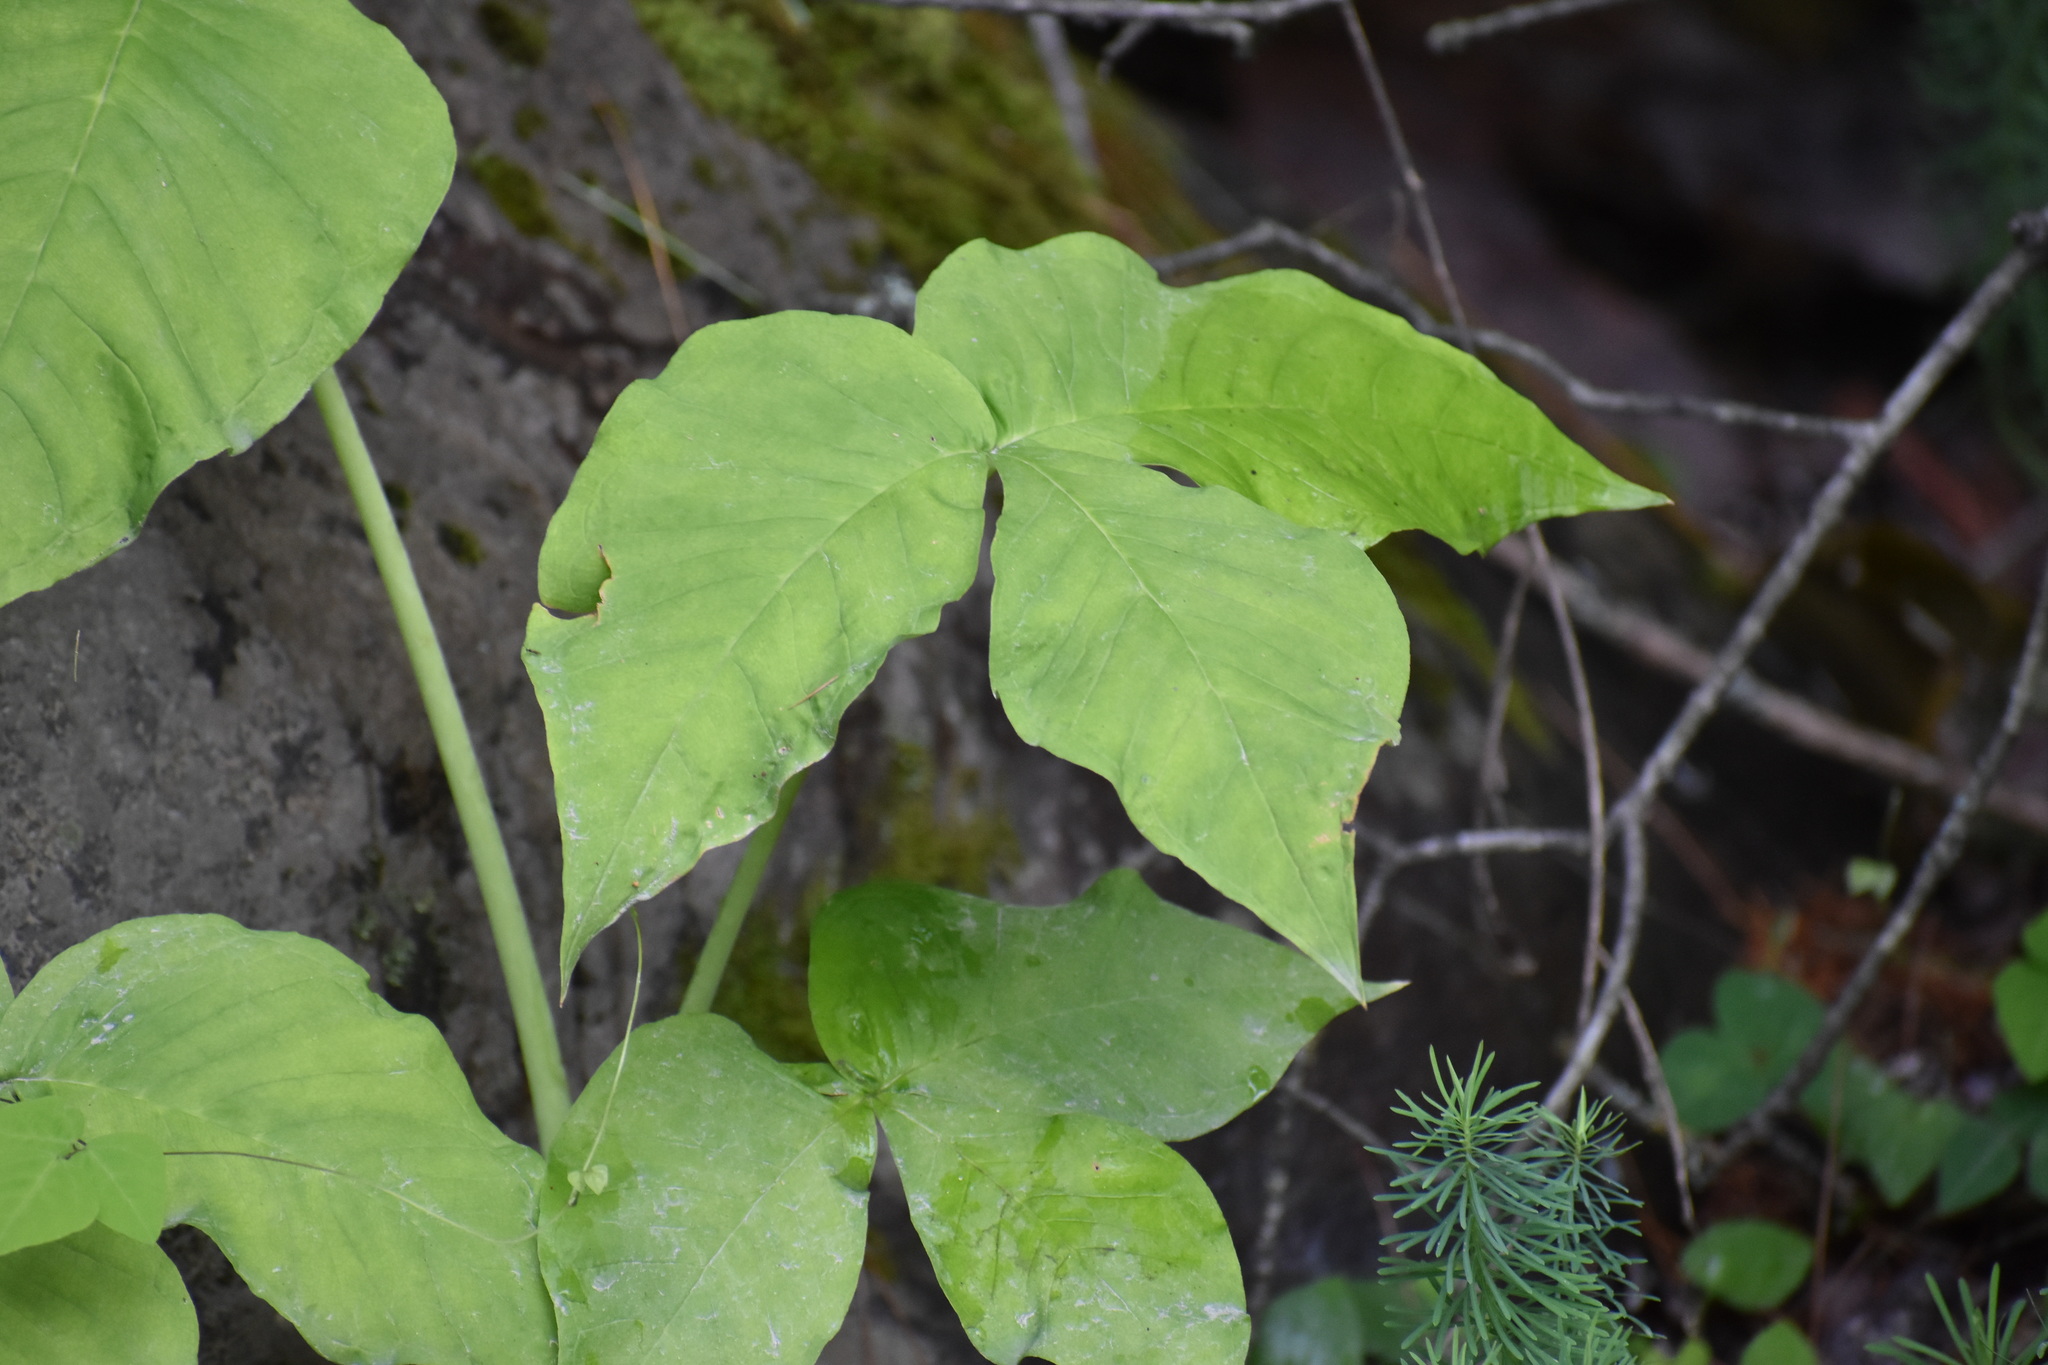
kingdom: Plantae
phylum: Tracheophyta
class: Liliopsida
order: Alismatales
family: Araceae
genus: Arisaema
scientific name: Arisaema triphyllum
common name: Jack-in-the-pulpit
